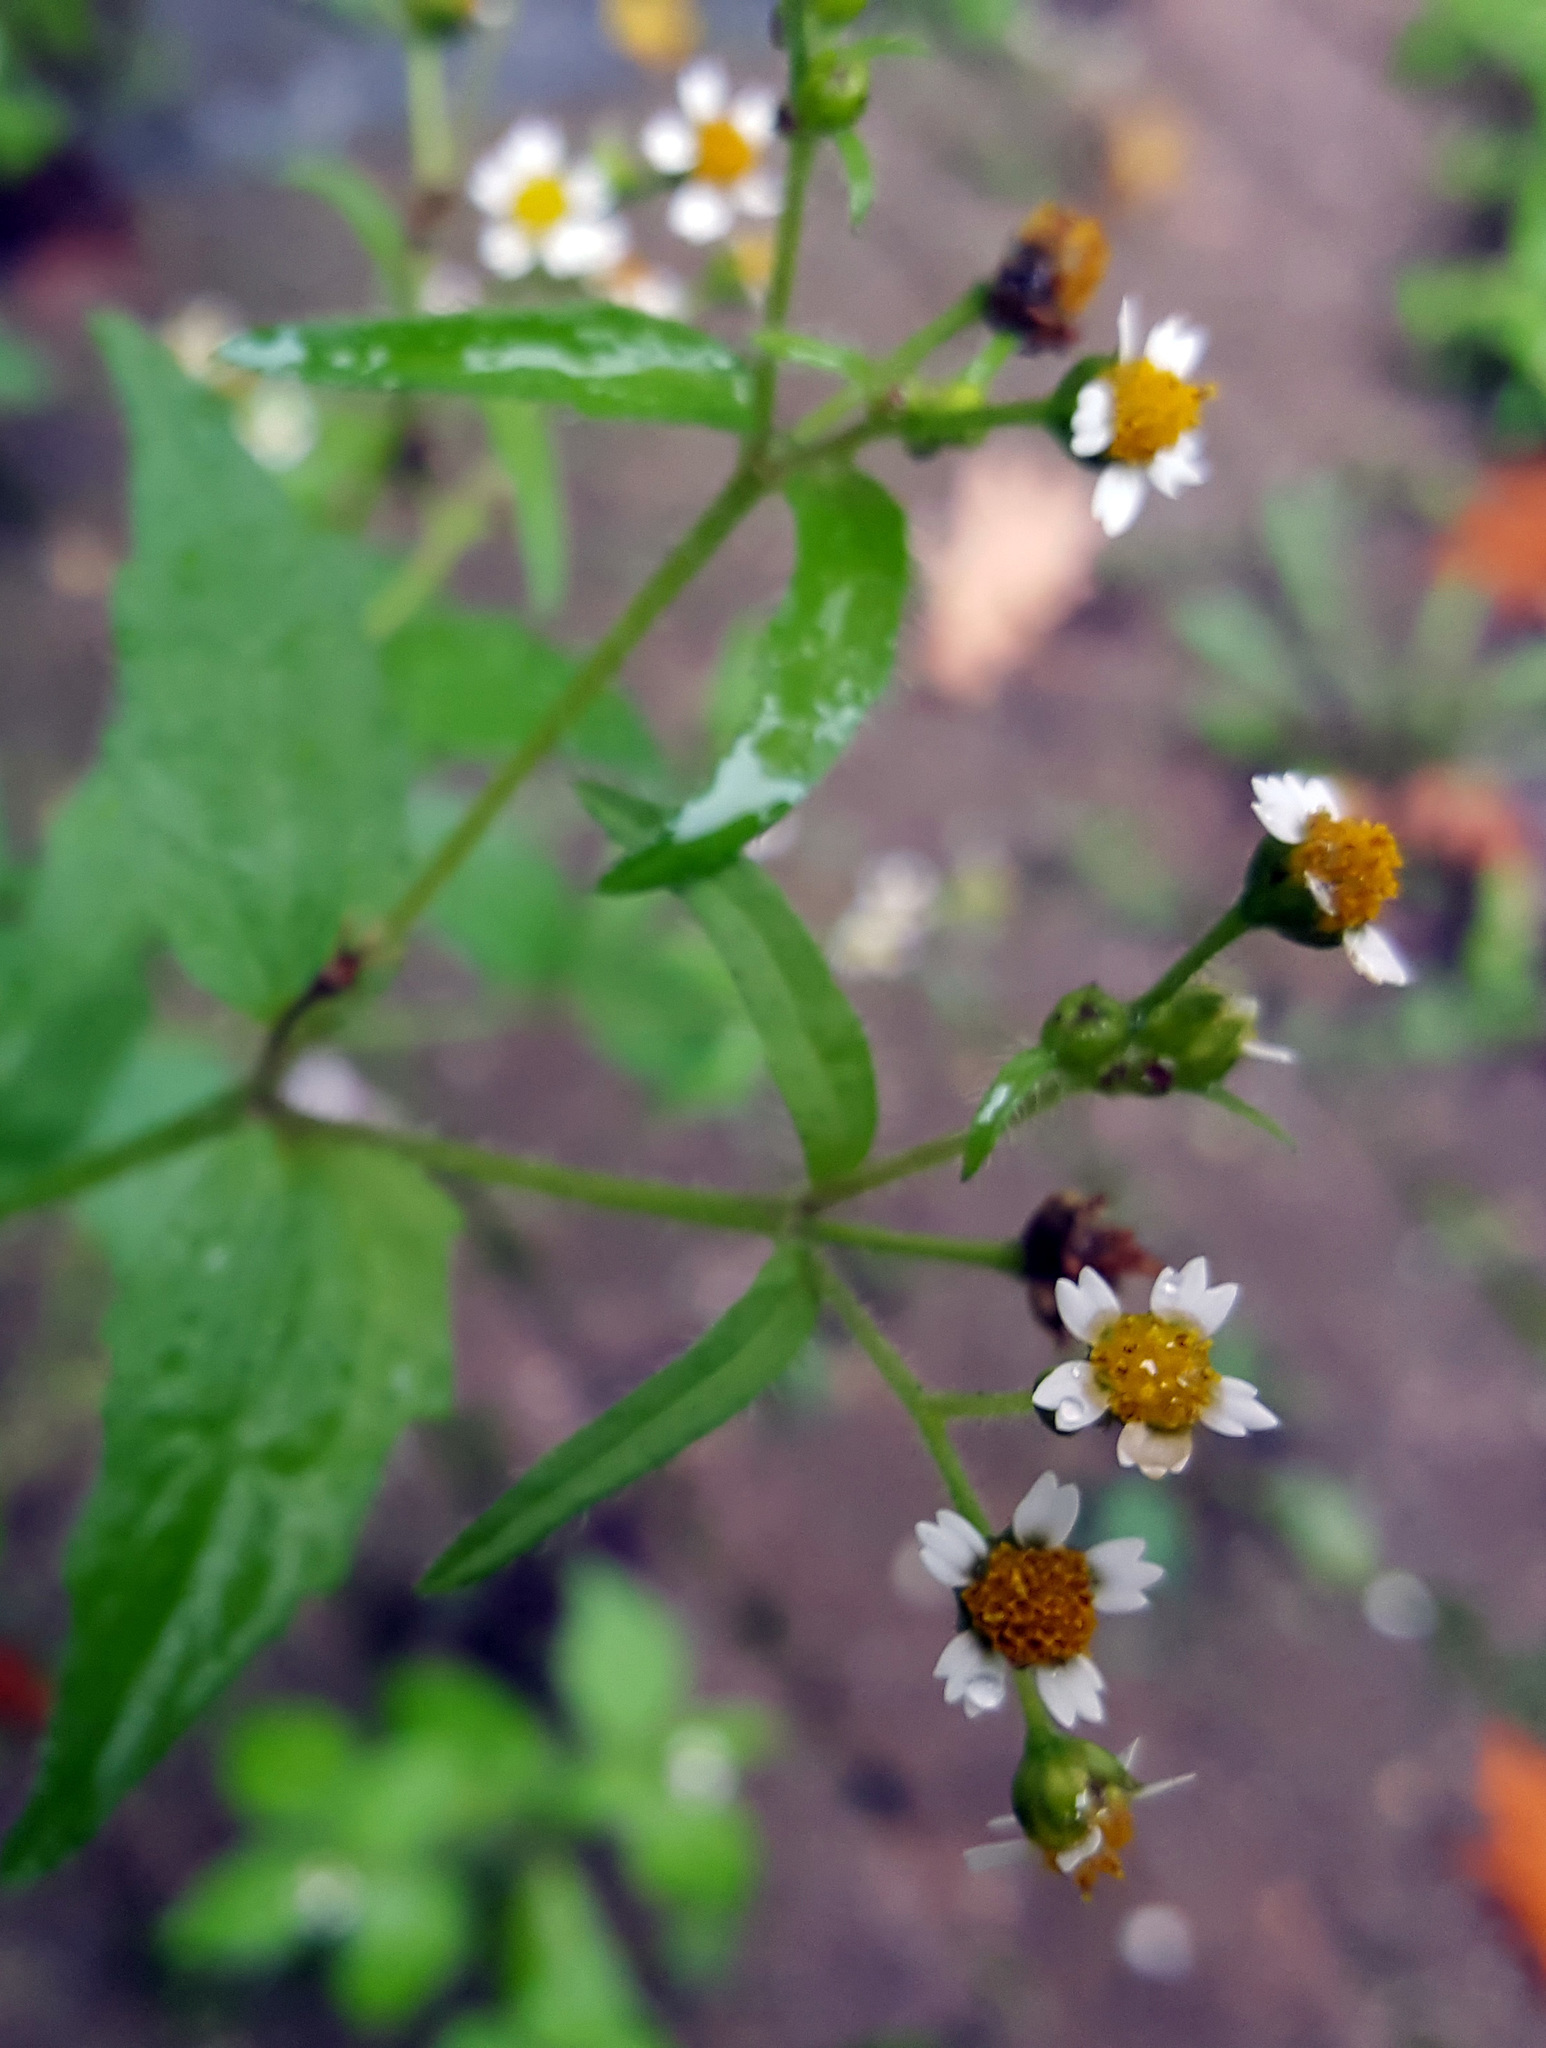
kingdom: Plantae
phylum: Tracheophyta
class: Magnoliopsida
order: Asterales
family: Asteraceae
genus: Galinsoga
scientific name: Galinsoga quadriradiata
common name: Shaggy soldier
